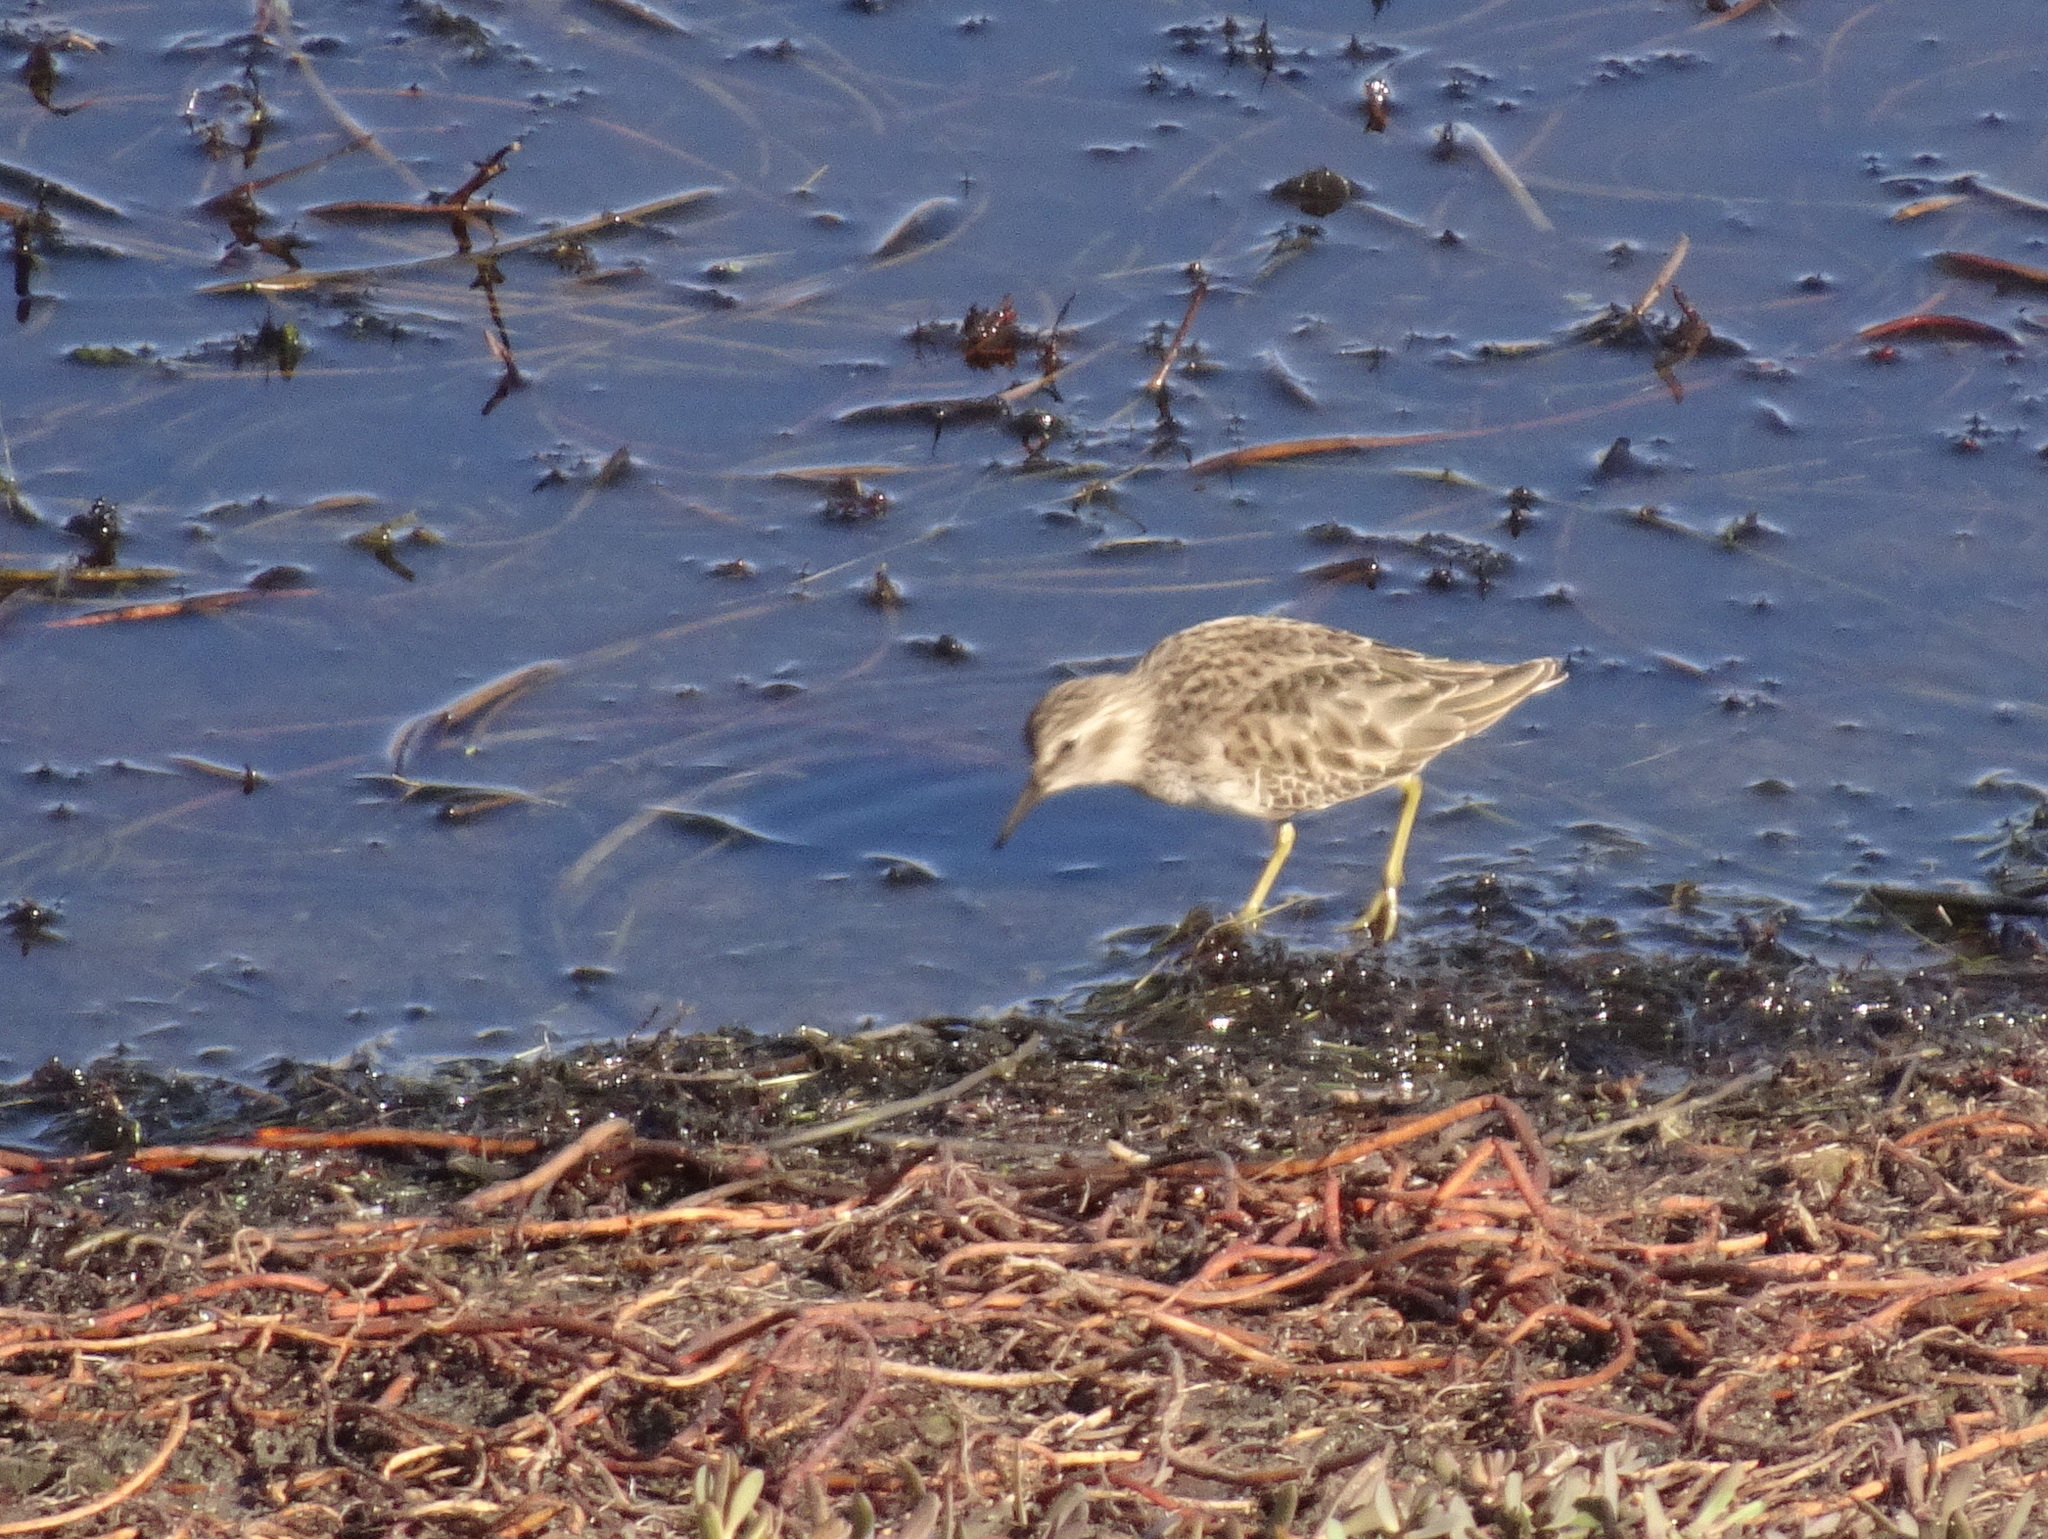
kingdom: Animalia
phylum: Chordata
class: Aves
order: Charadriiformes
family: Scolopacidae
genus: Calidris
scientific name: Calidris minutilla
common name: Least sandpiper
